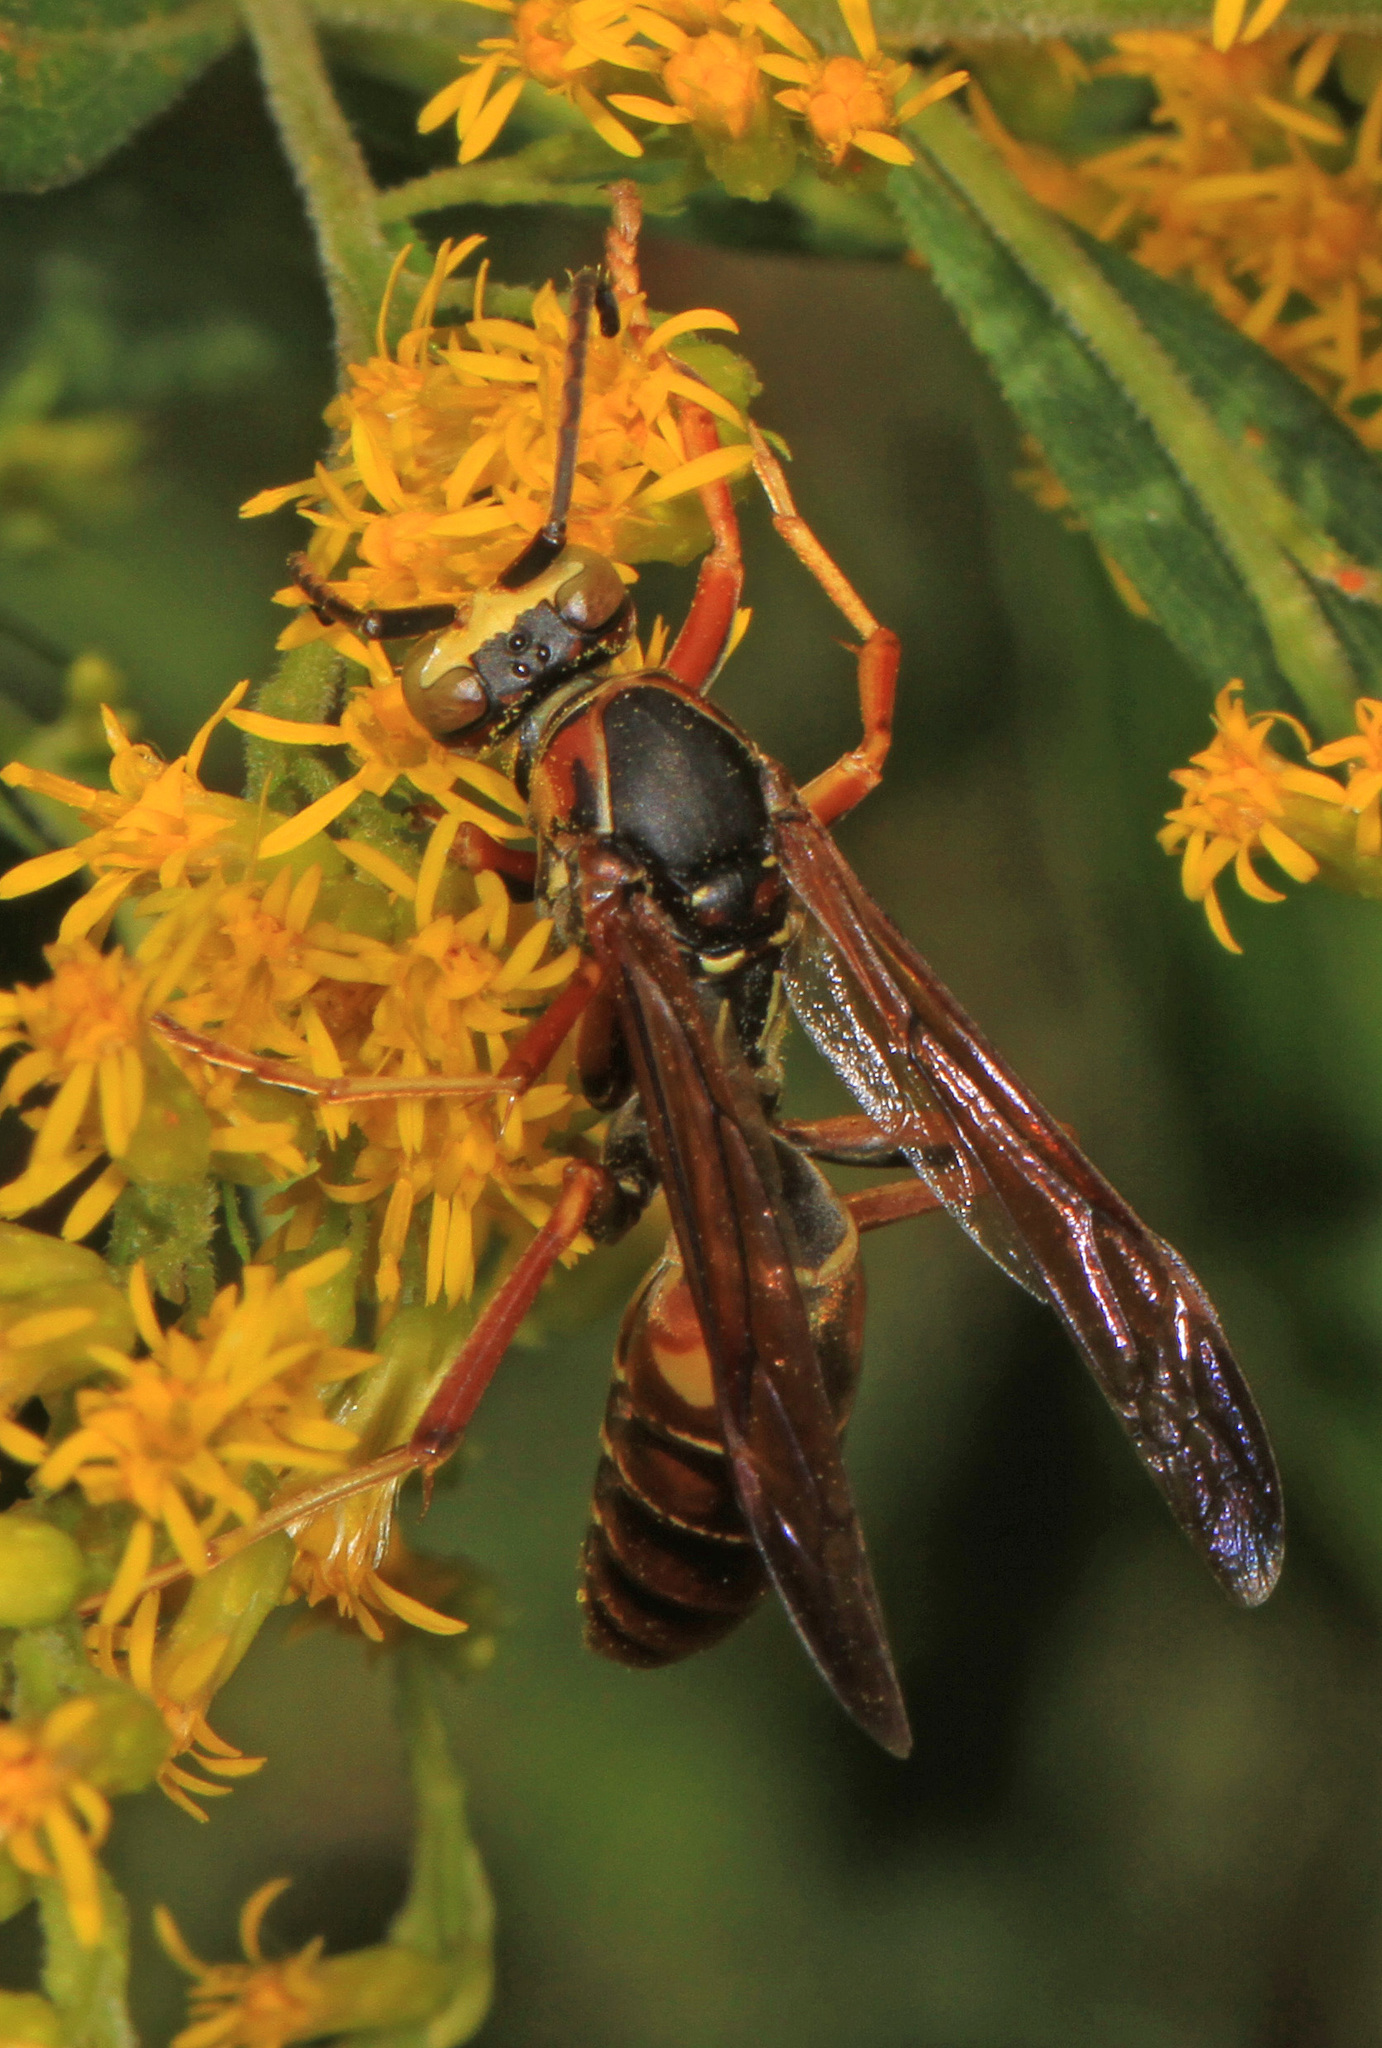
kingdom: Animalia
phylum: Arthropoda
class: Insecta
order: Hymenoptera
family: Eumenidae
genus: Polistes
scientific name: Polistes fuscatus
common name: Dark paper wasp
